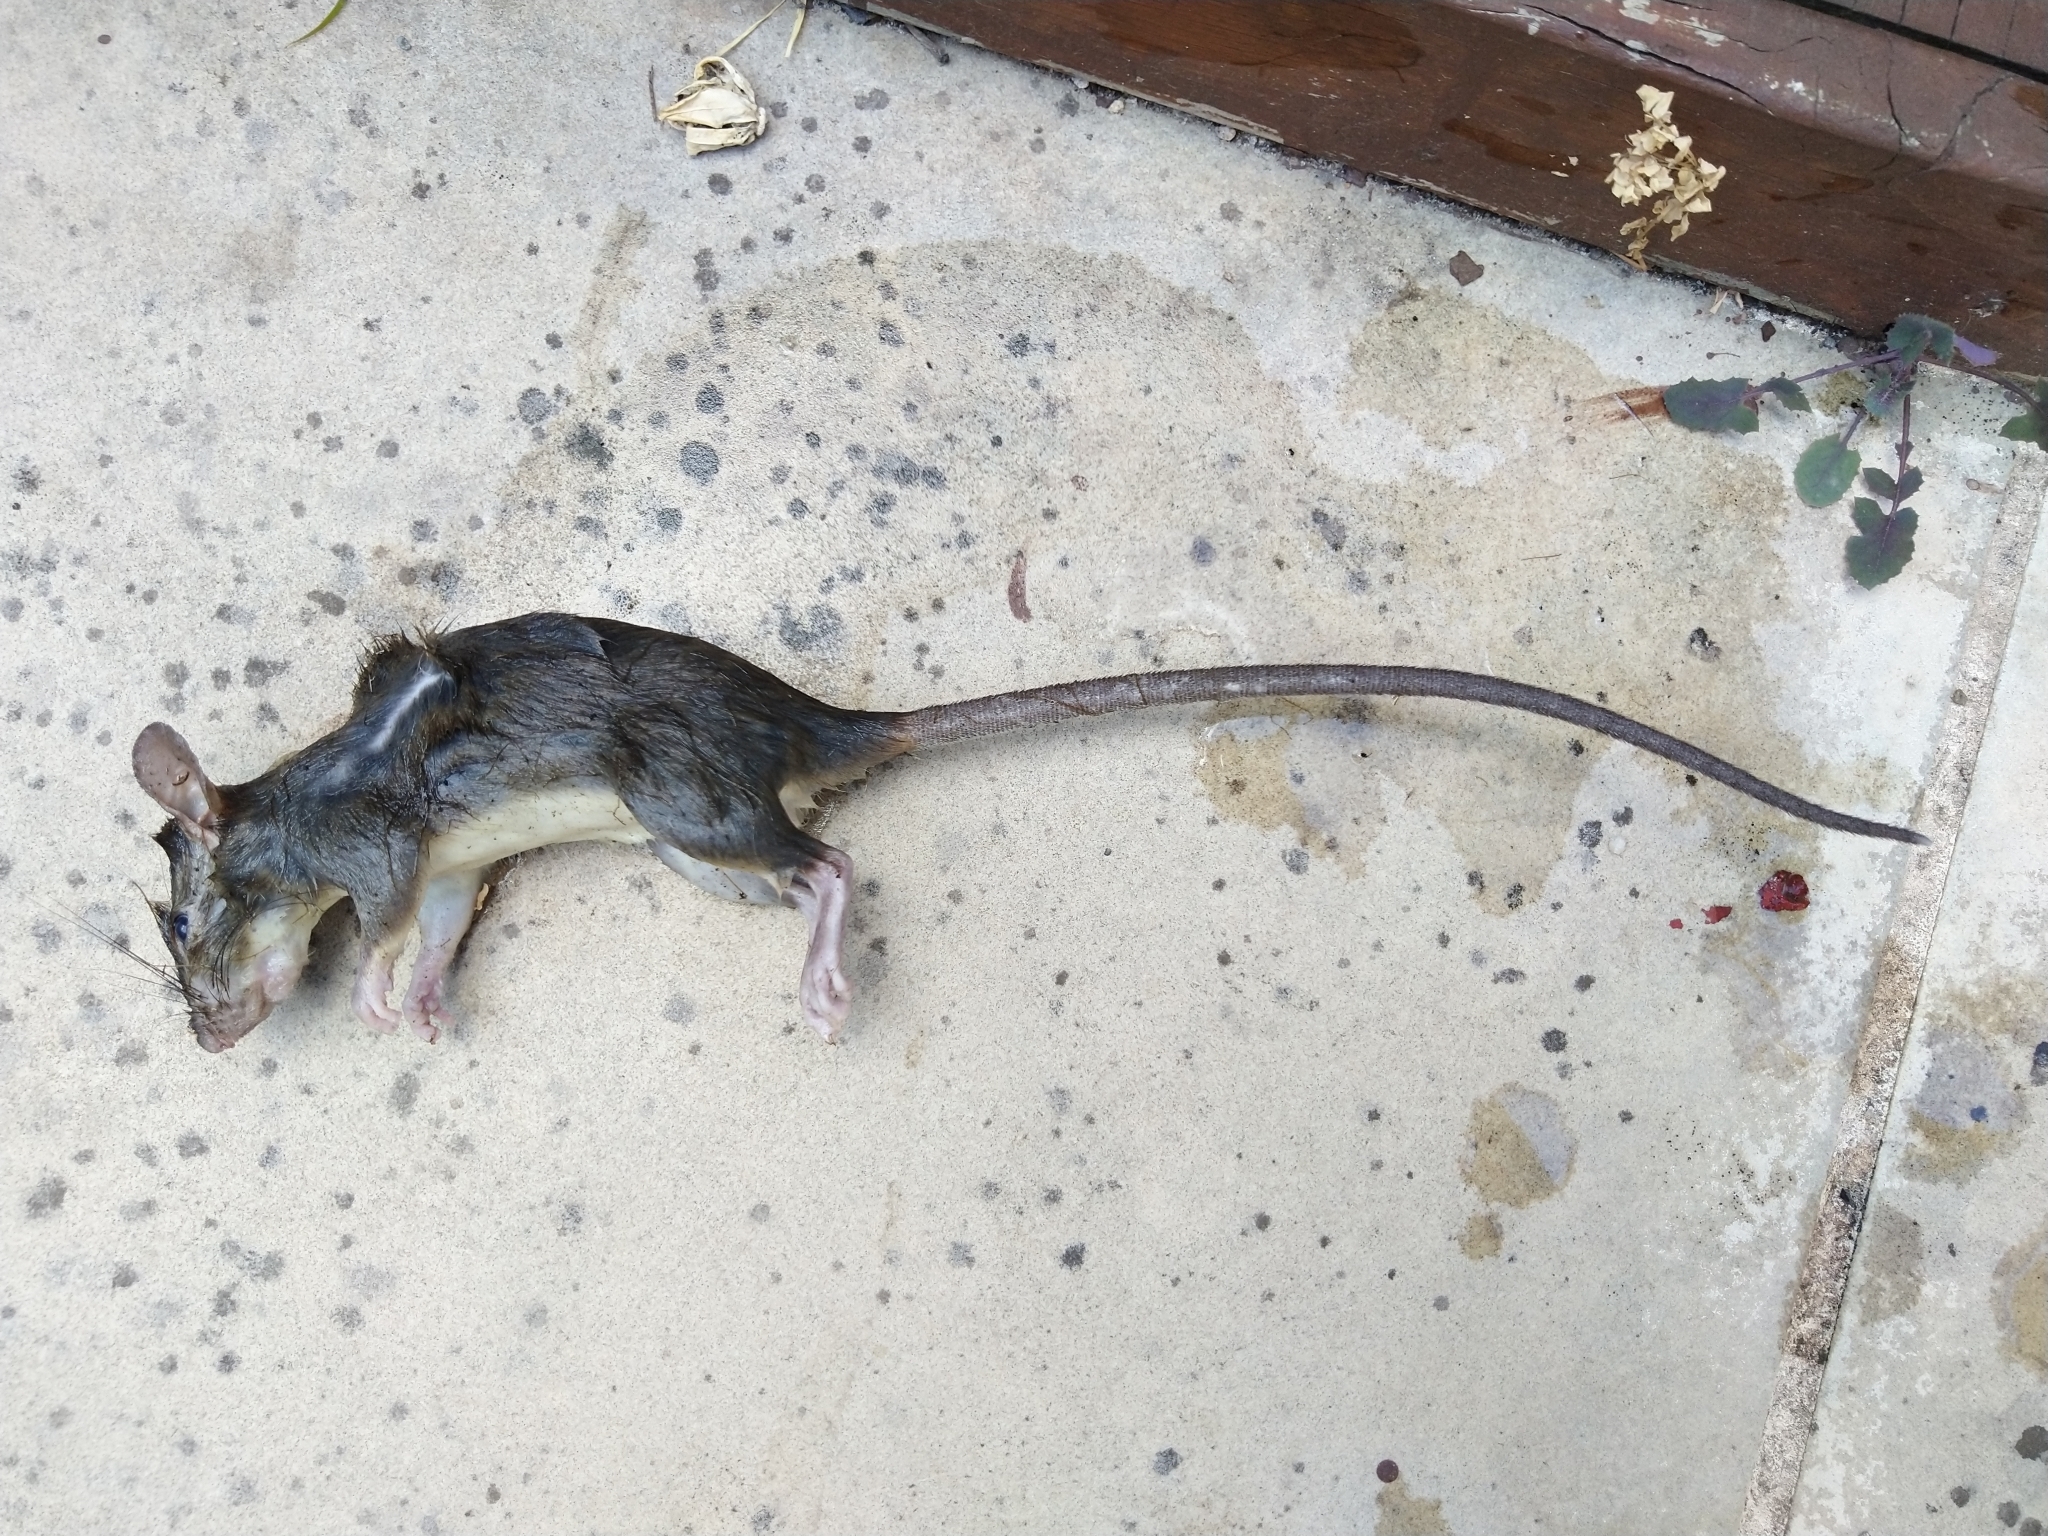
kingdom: Animalia
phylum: Chordata
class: Mammalia
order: Rodentia
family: Muridae
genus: Rattus
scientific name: Rattus rattus
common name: Black rat
